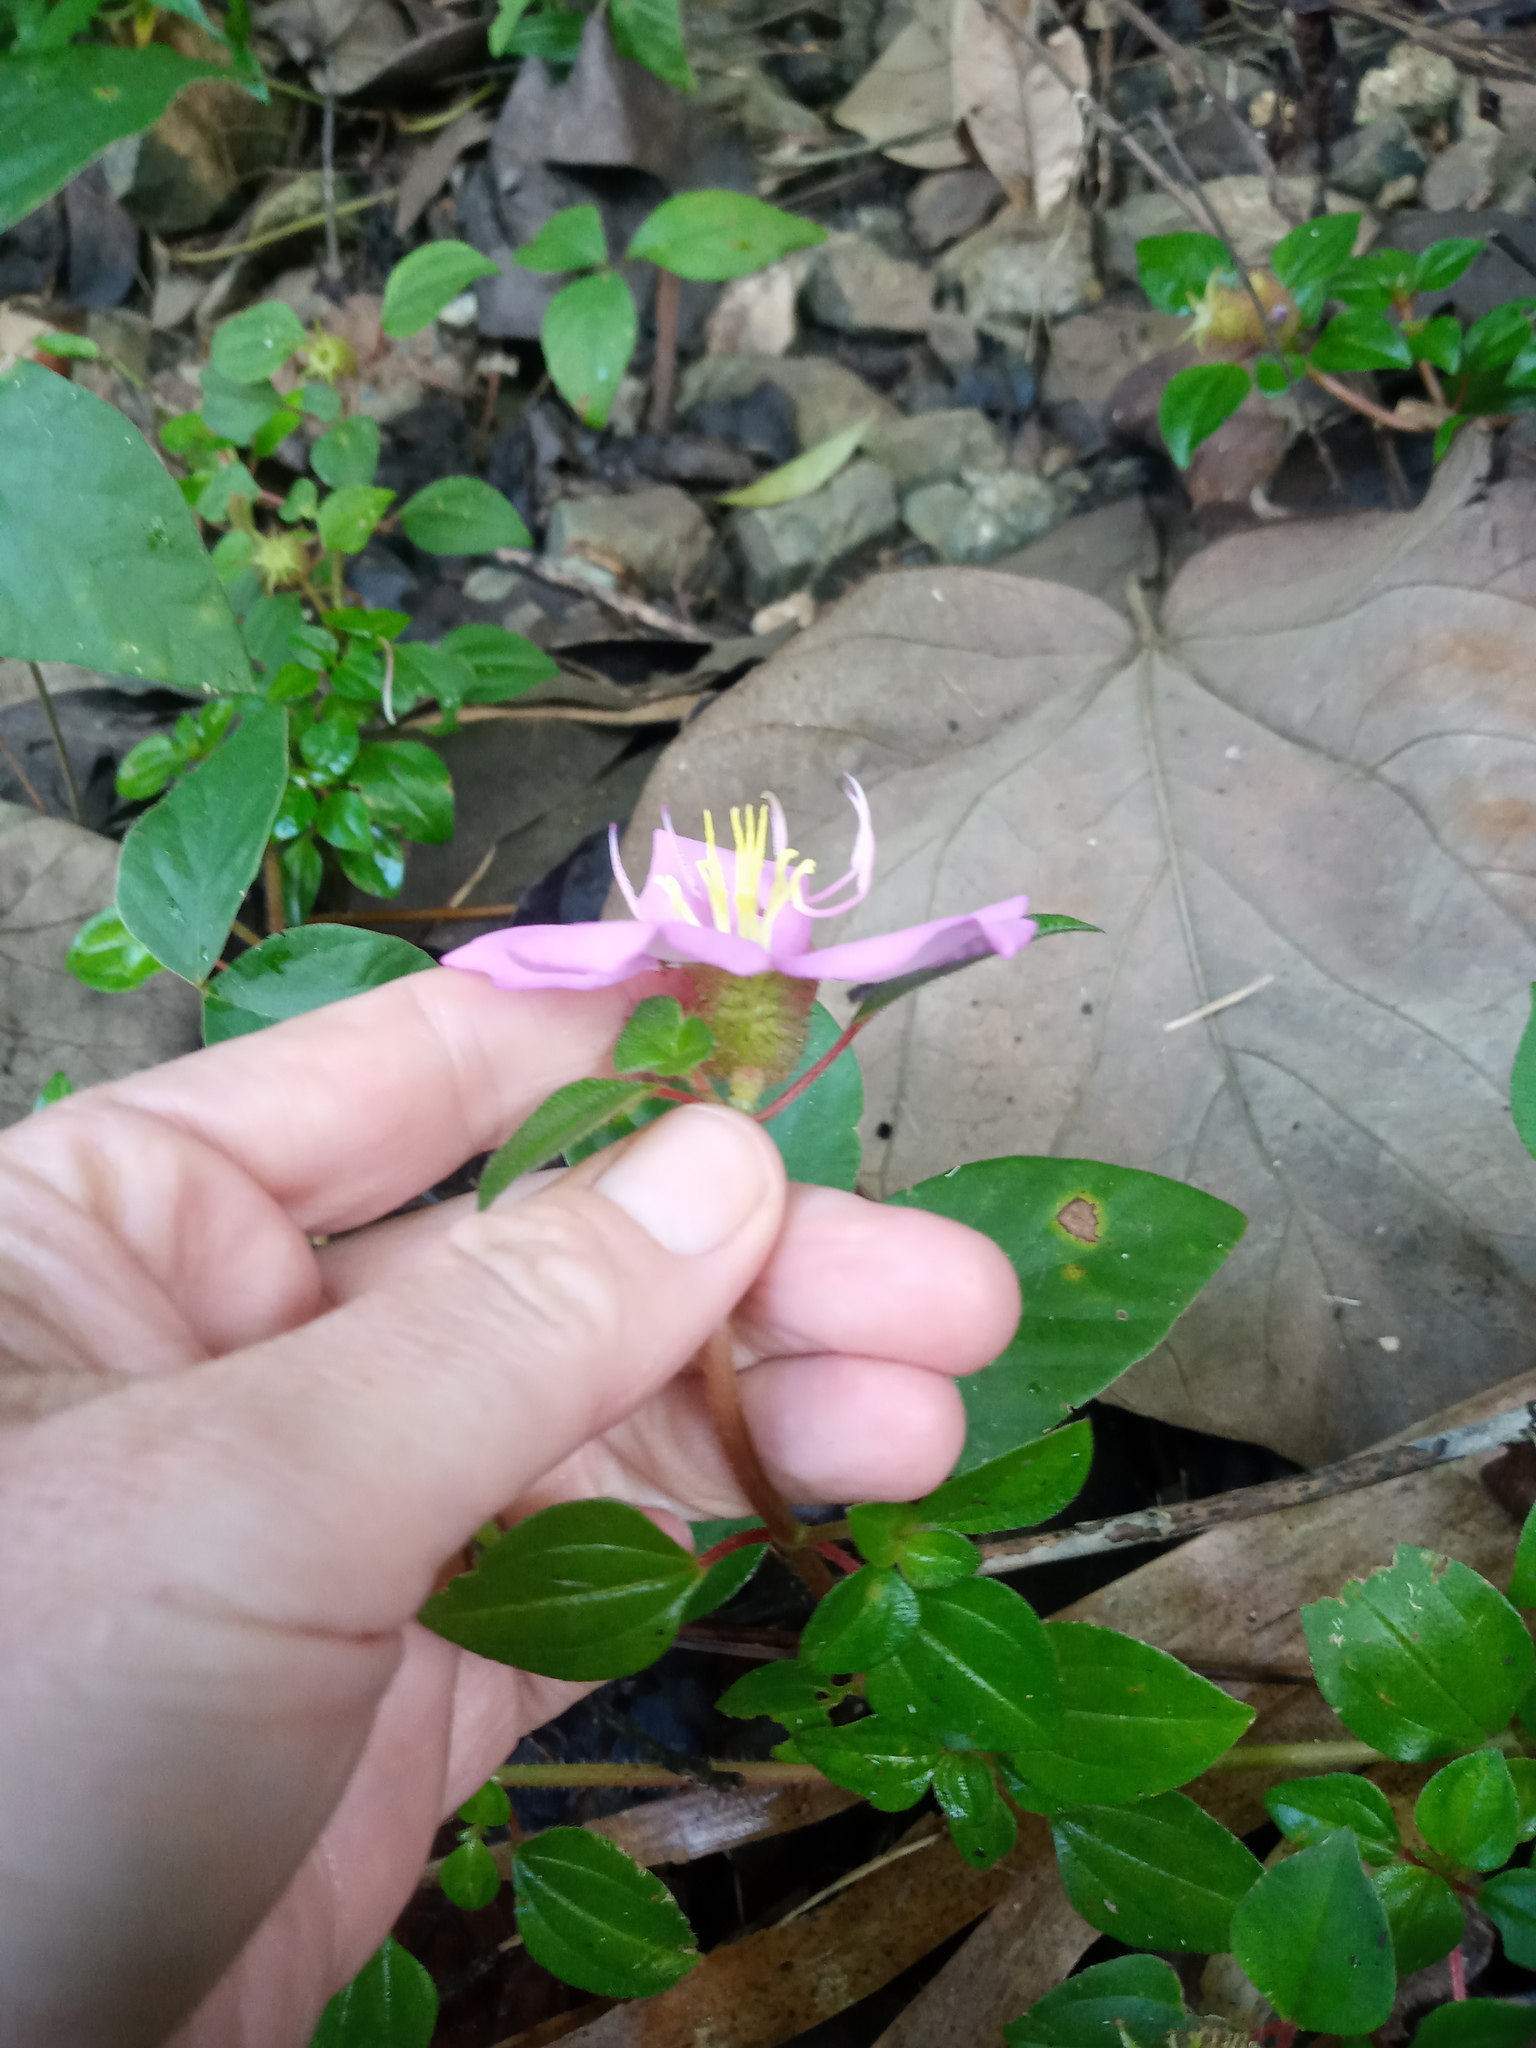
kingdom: Plantae
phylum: Tracheophyta
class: Magnoliopsida
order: Myrtales
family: Melastomataceae
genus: Heterotis
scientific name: Heterotis rotundifolia
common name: Pinklady
